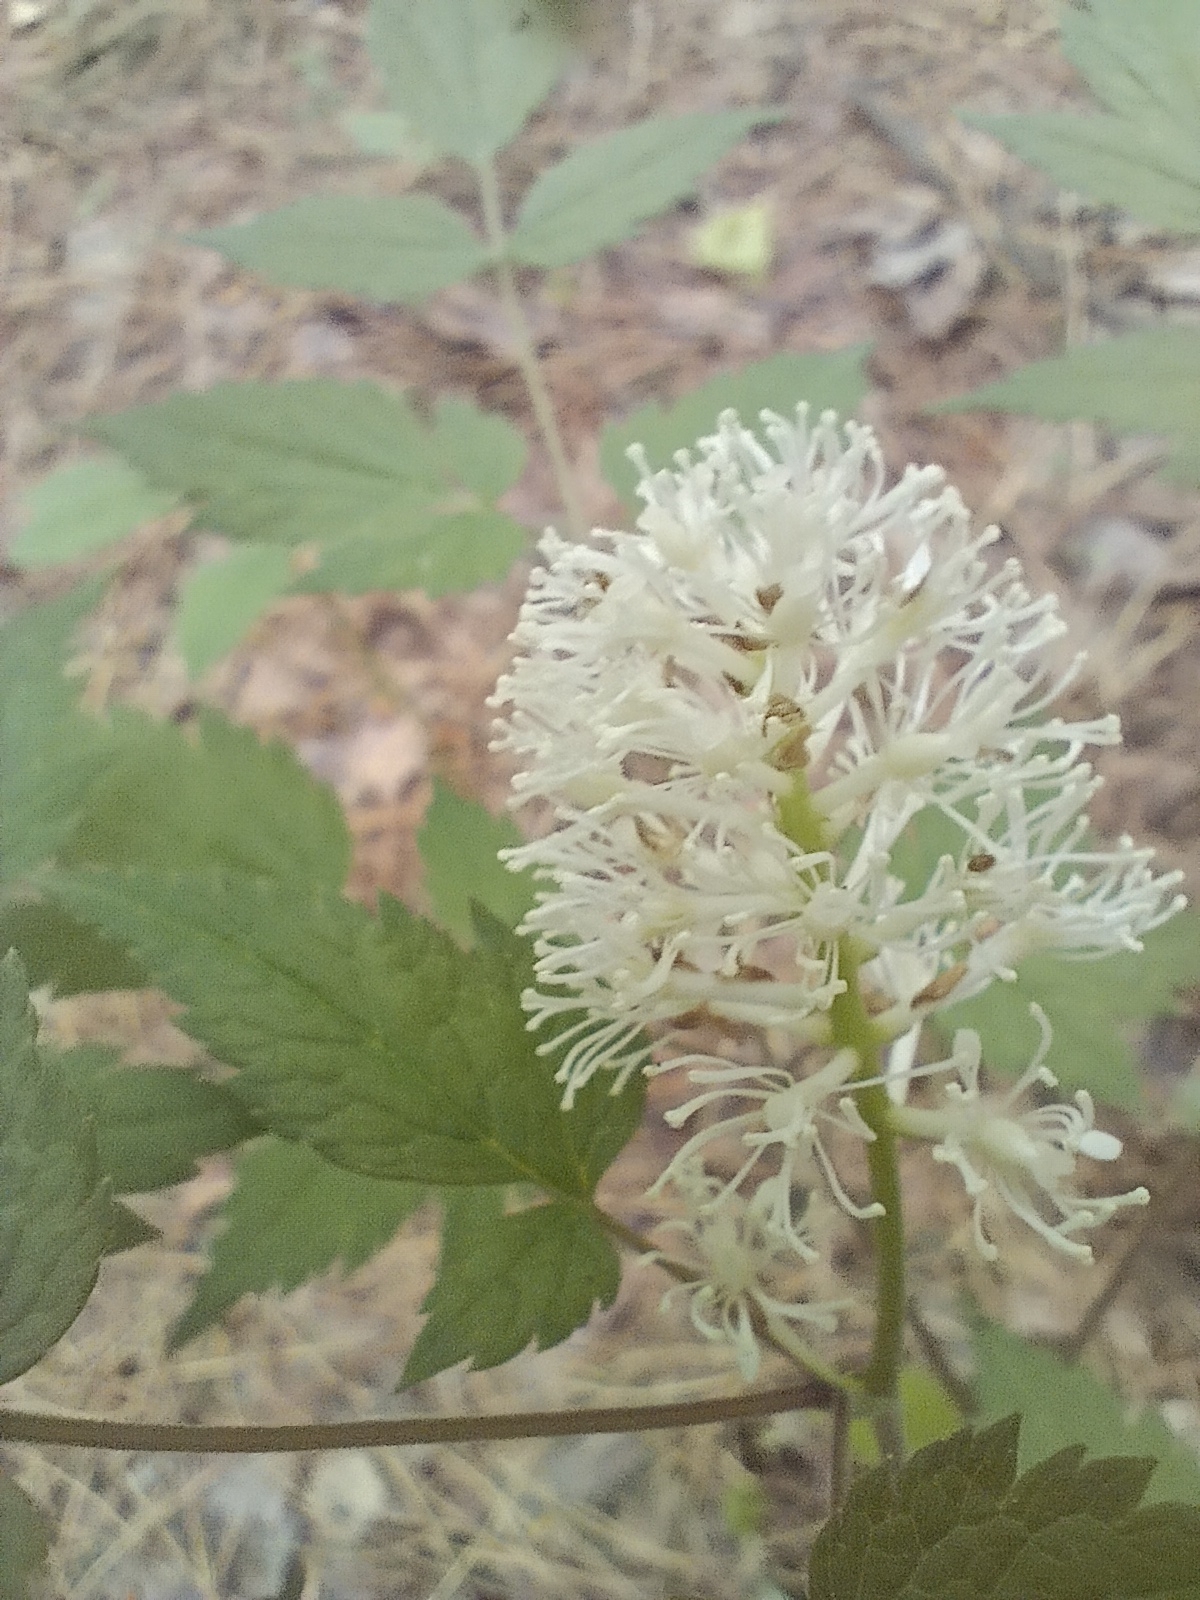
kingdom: Plantae
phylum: Tracheophyta
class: Magnoliopsida
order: Ranunculales
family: Ranunculaceae
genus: Actaea
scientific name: Actaea erythrocarpa
